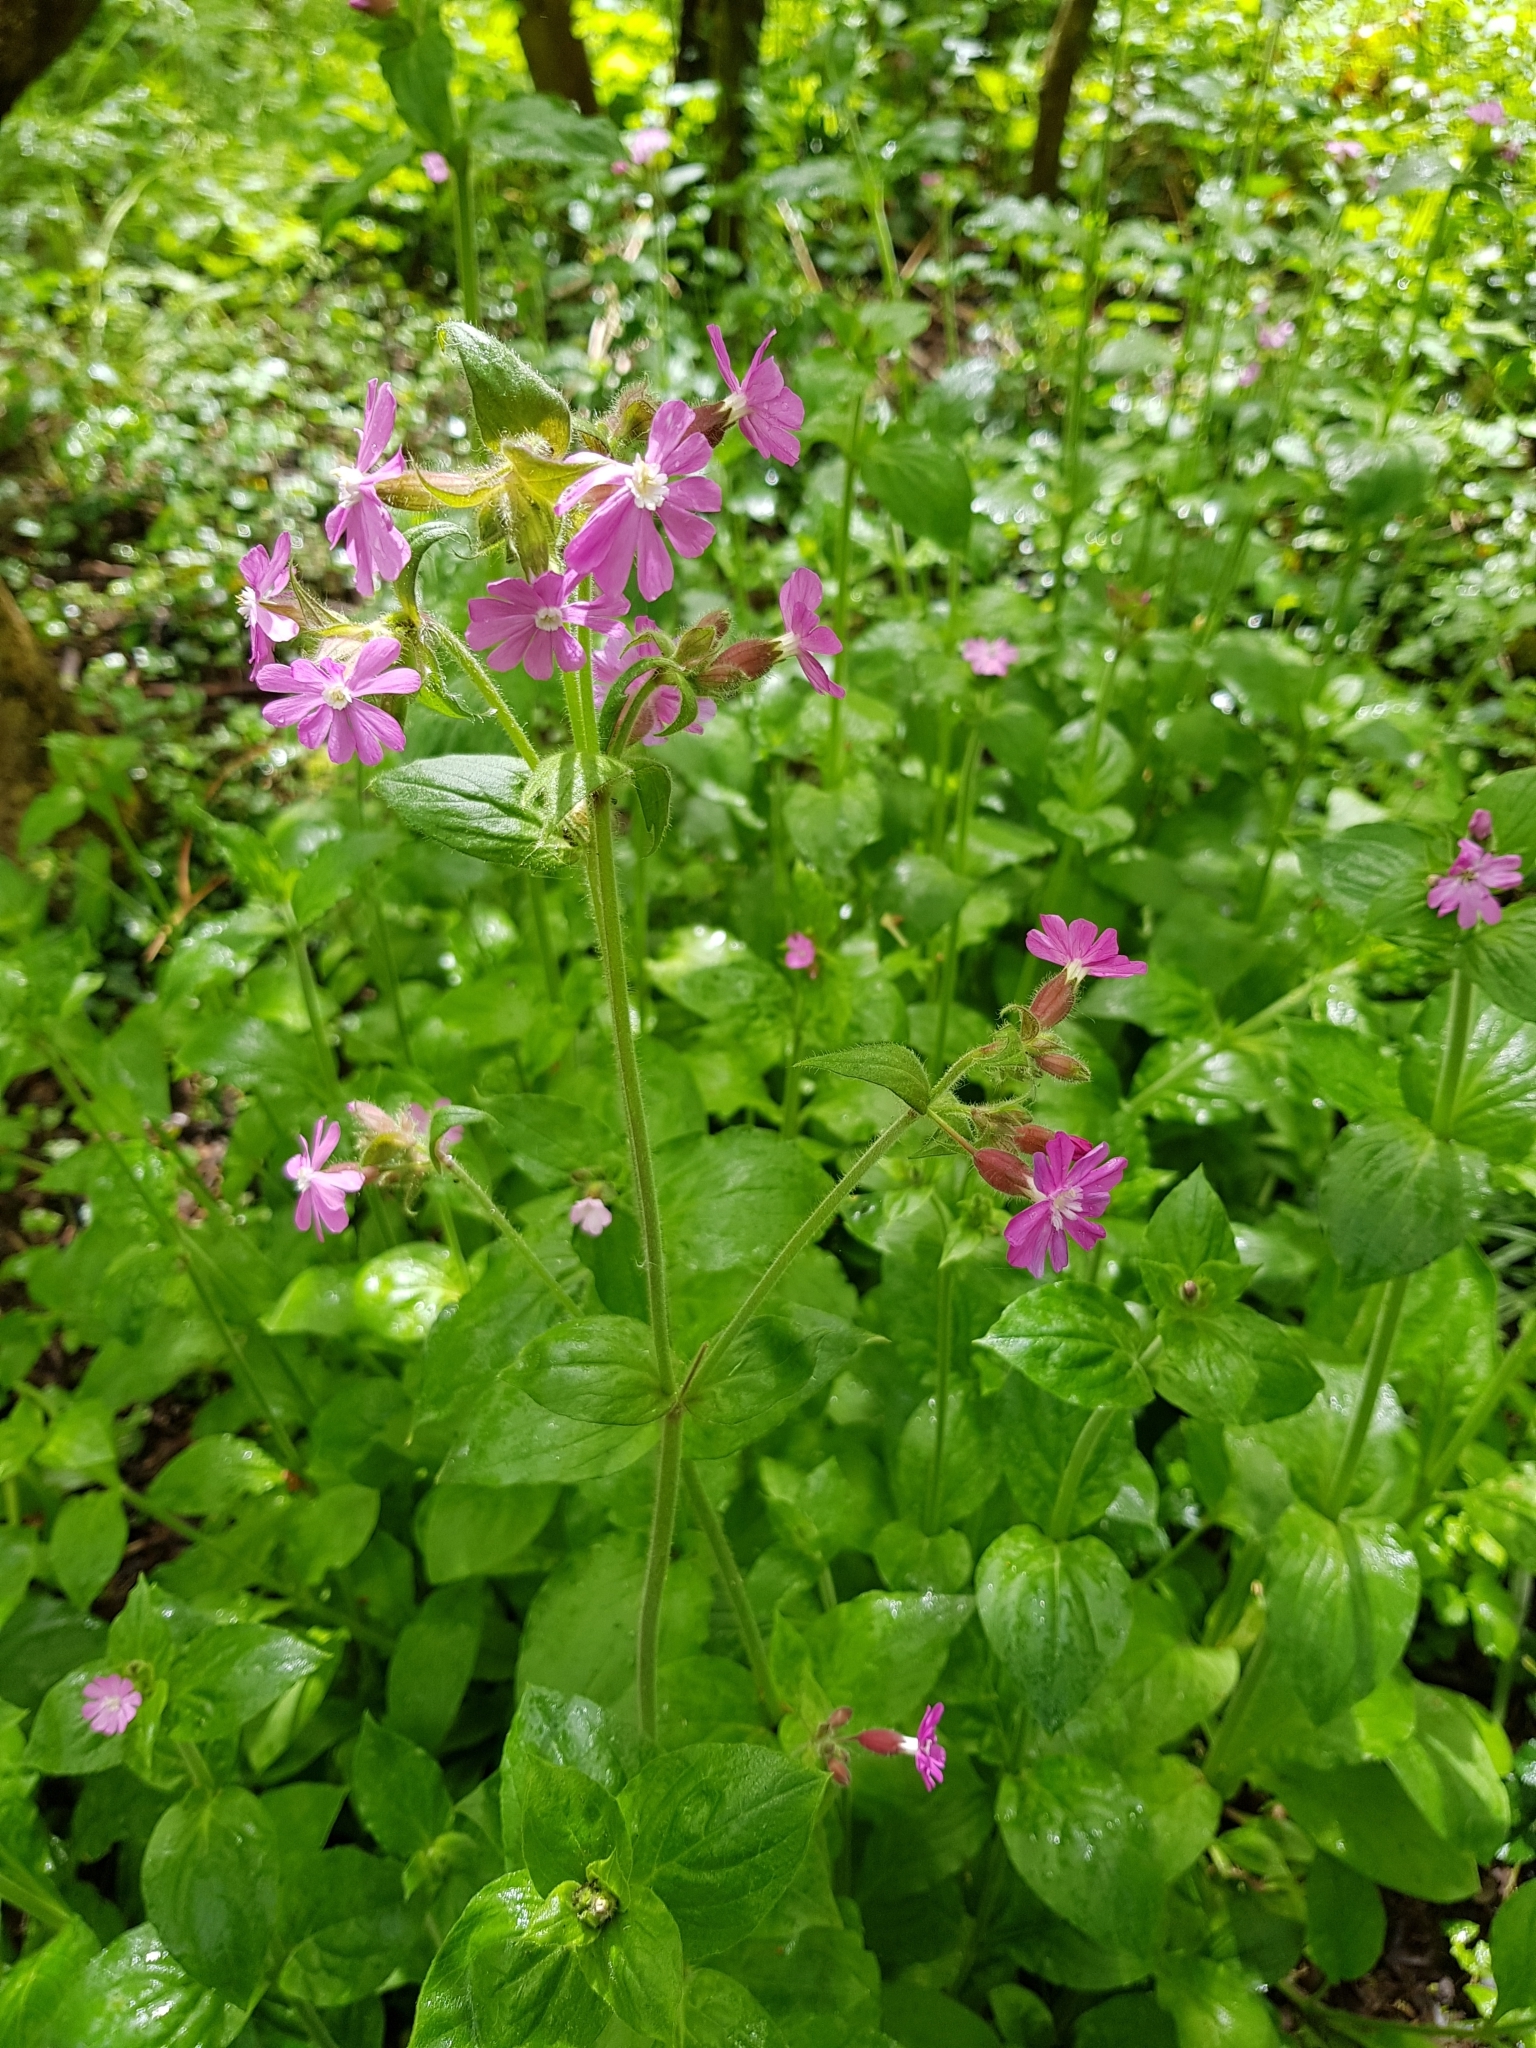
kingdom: Plantae
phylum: Tracheophyta
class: Magnoliopsida
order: Caryophyllales
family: Caryophyllaceae
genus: Silene
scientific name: Silene dioica
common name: Red campion
